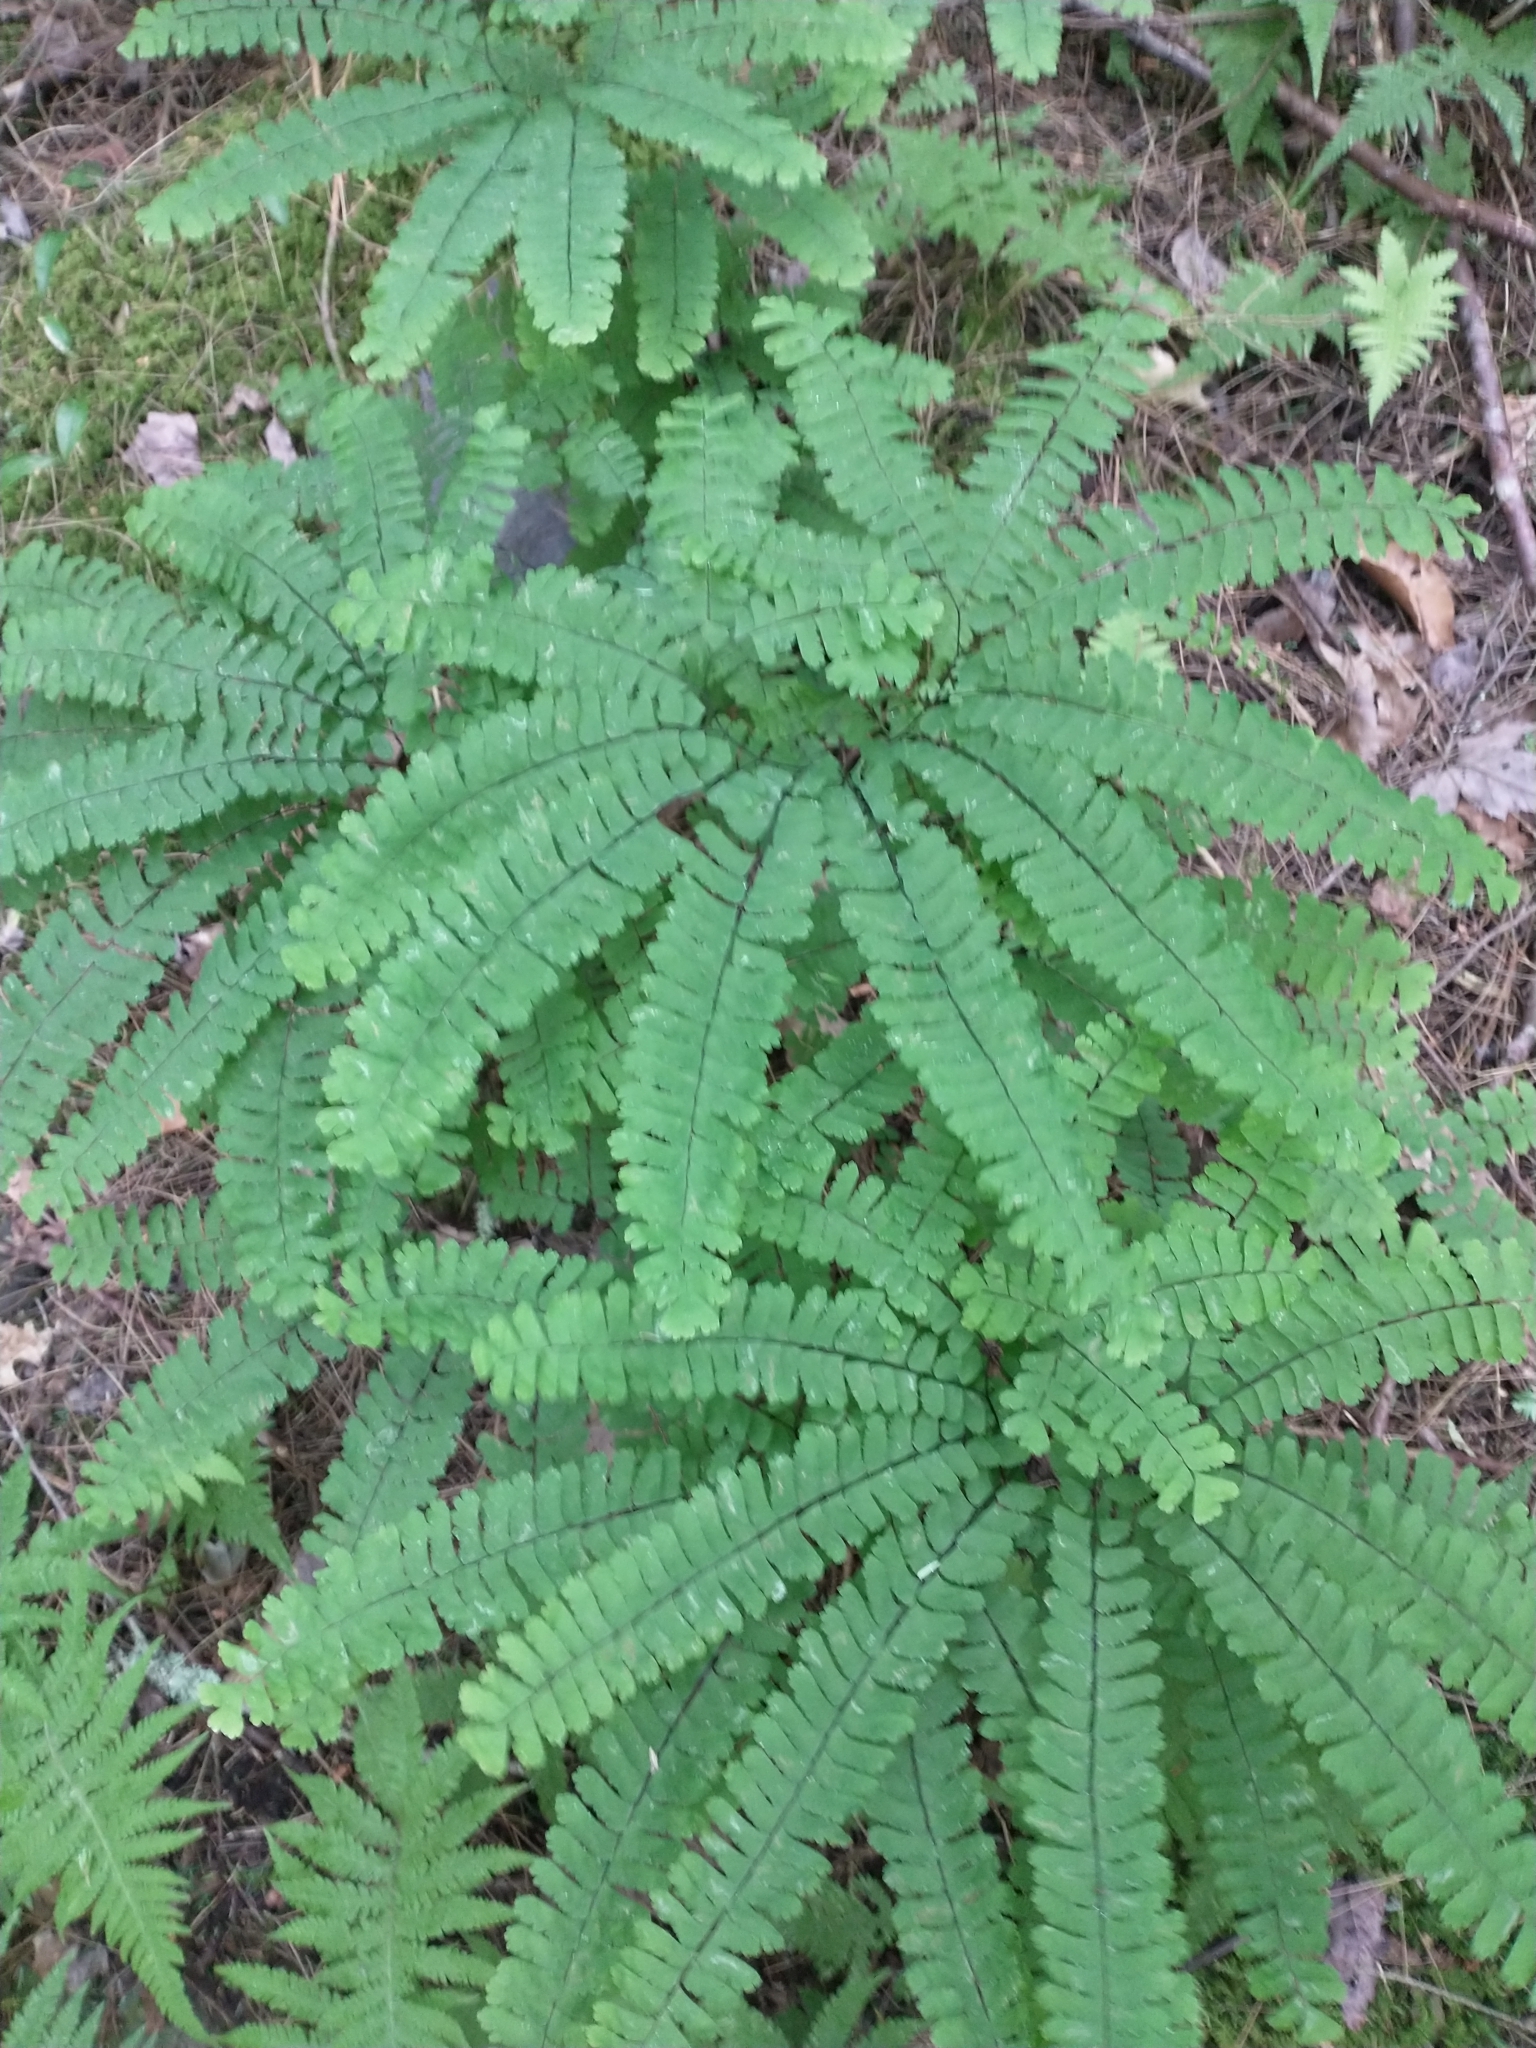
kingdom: Plantae
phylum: Tracheophyta
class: Polypodiopsida
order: Polypodiales
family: Pteridaceae
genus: Adiantum
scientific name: Adiantum pedatum
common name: Five-finger fern
